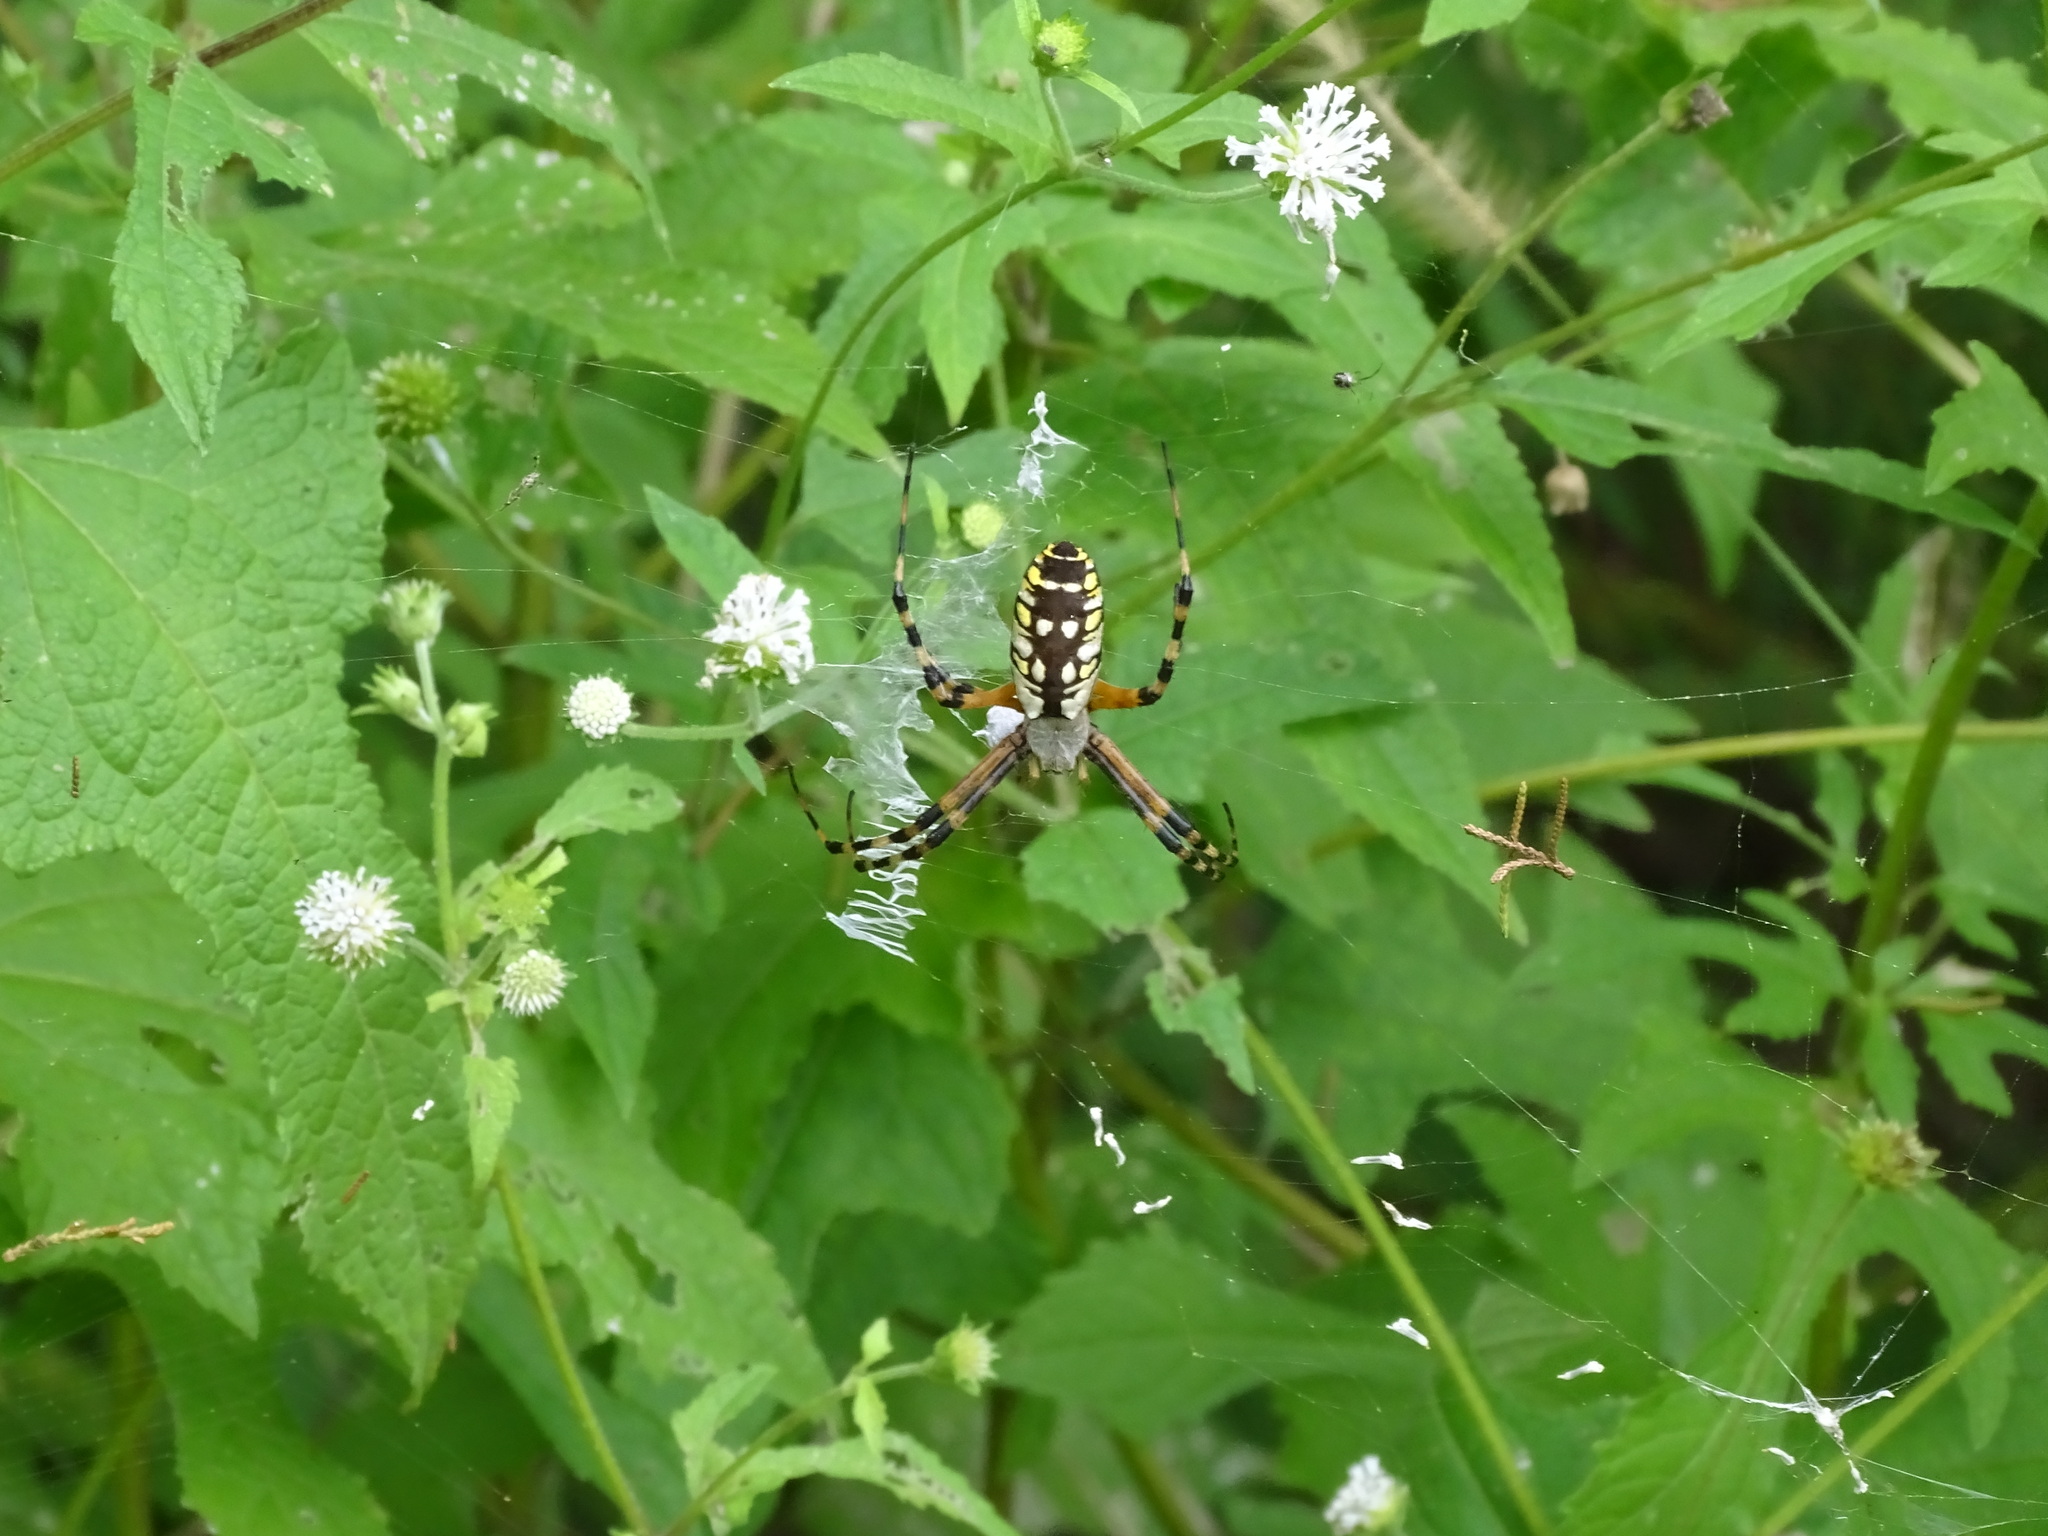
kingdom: Animalia
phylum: Arthropoda
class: Arachnida
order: Araneae
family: Araneidae
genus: Argiope
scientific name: Argiope aurantia
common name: Orb weavers
